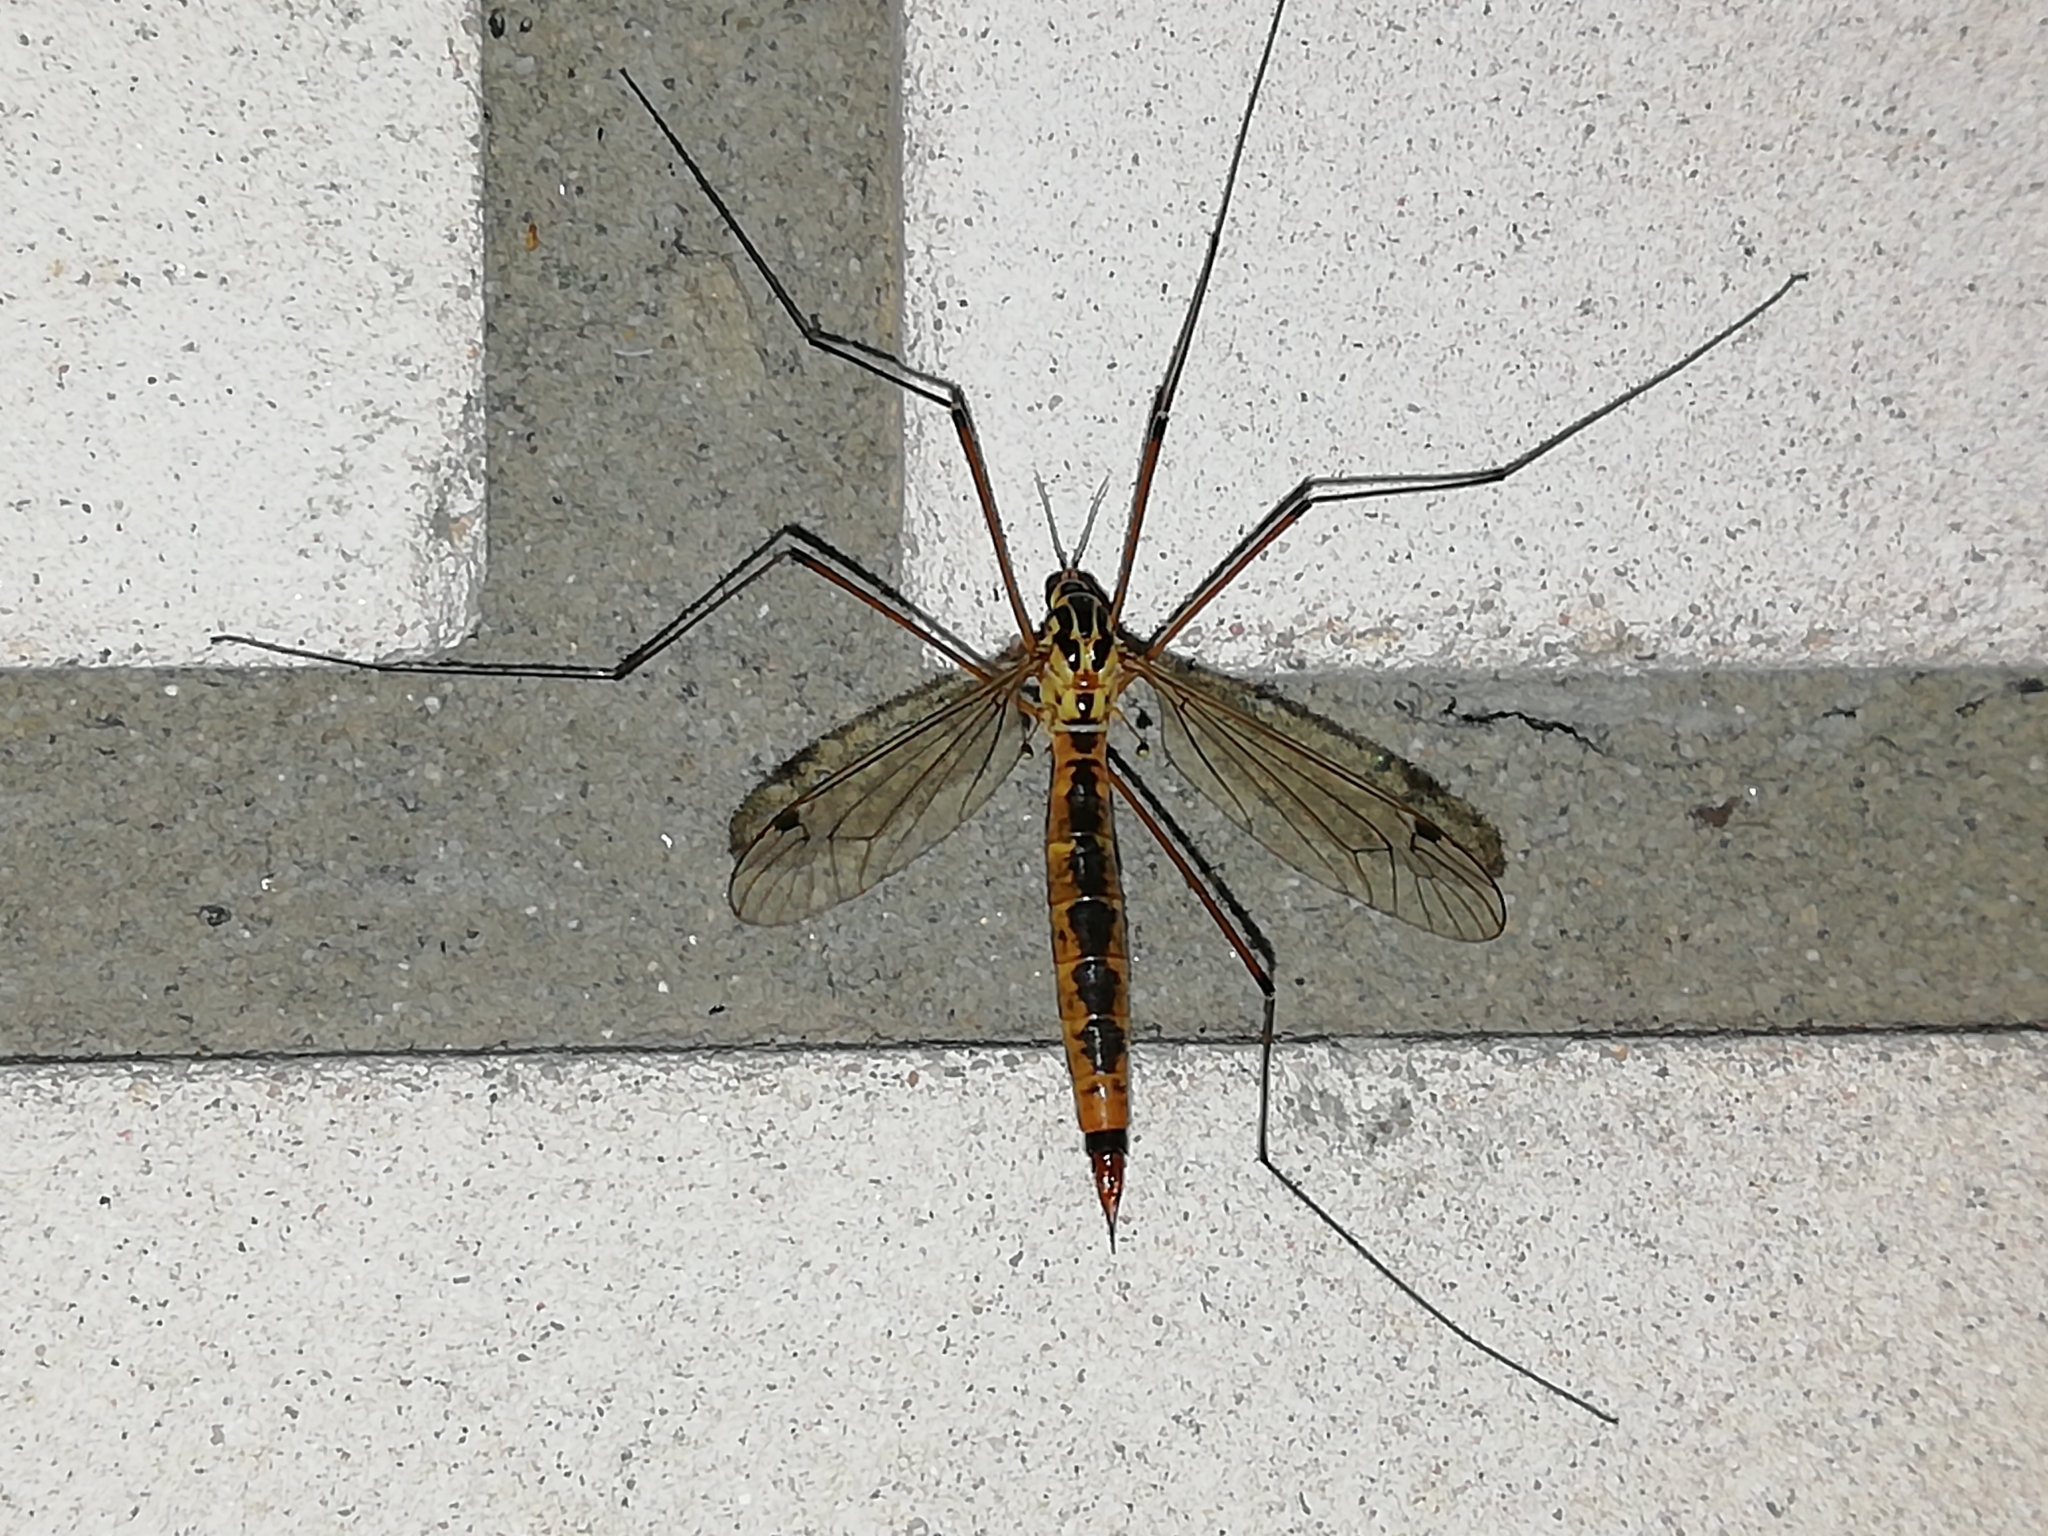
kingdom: Animalia
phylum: Arthropoda
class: Insecta
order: Diptera
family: Tipulidae
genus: Nephrotoma
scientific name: Nephrotoma cornicina
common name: Cranefly
